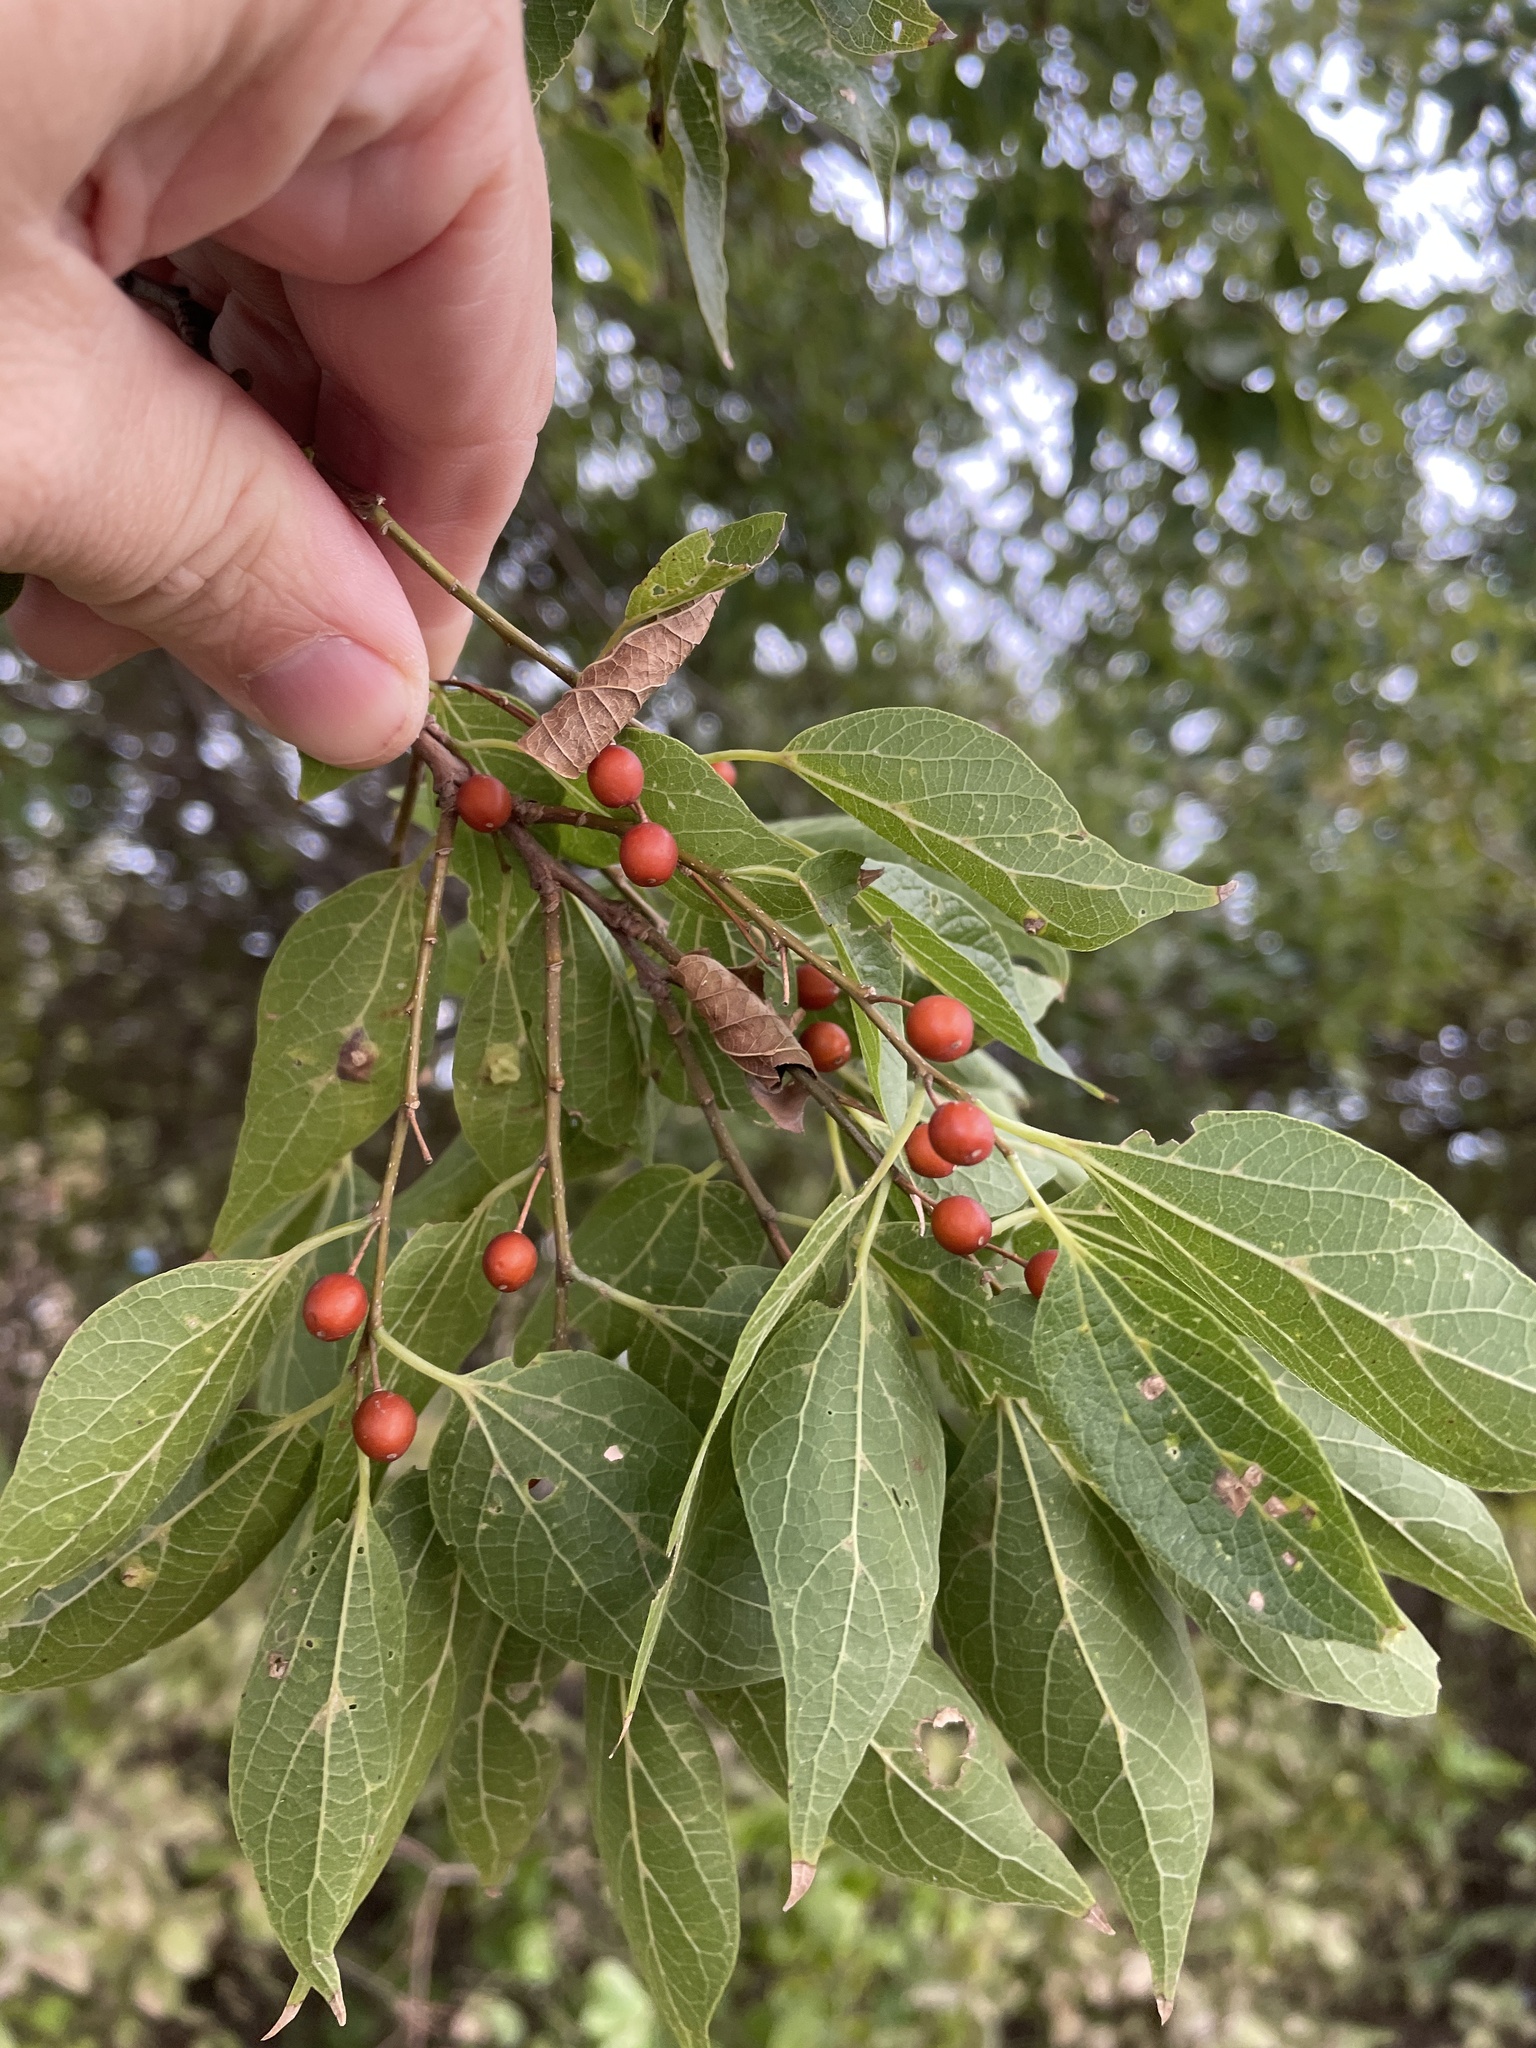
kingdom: Plantae
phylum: Tracheophyta
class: Magnoliopsida
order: Rosales
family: Cannabaceae
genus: Celtis
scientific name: Celtis laevigata
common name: Sugarberry
